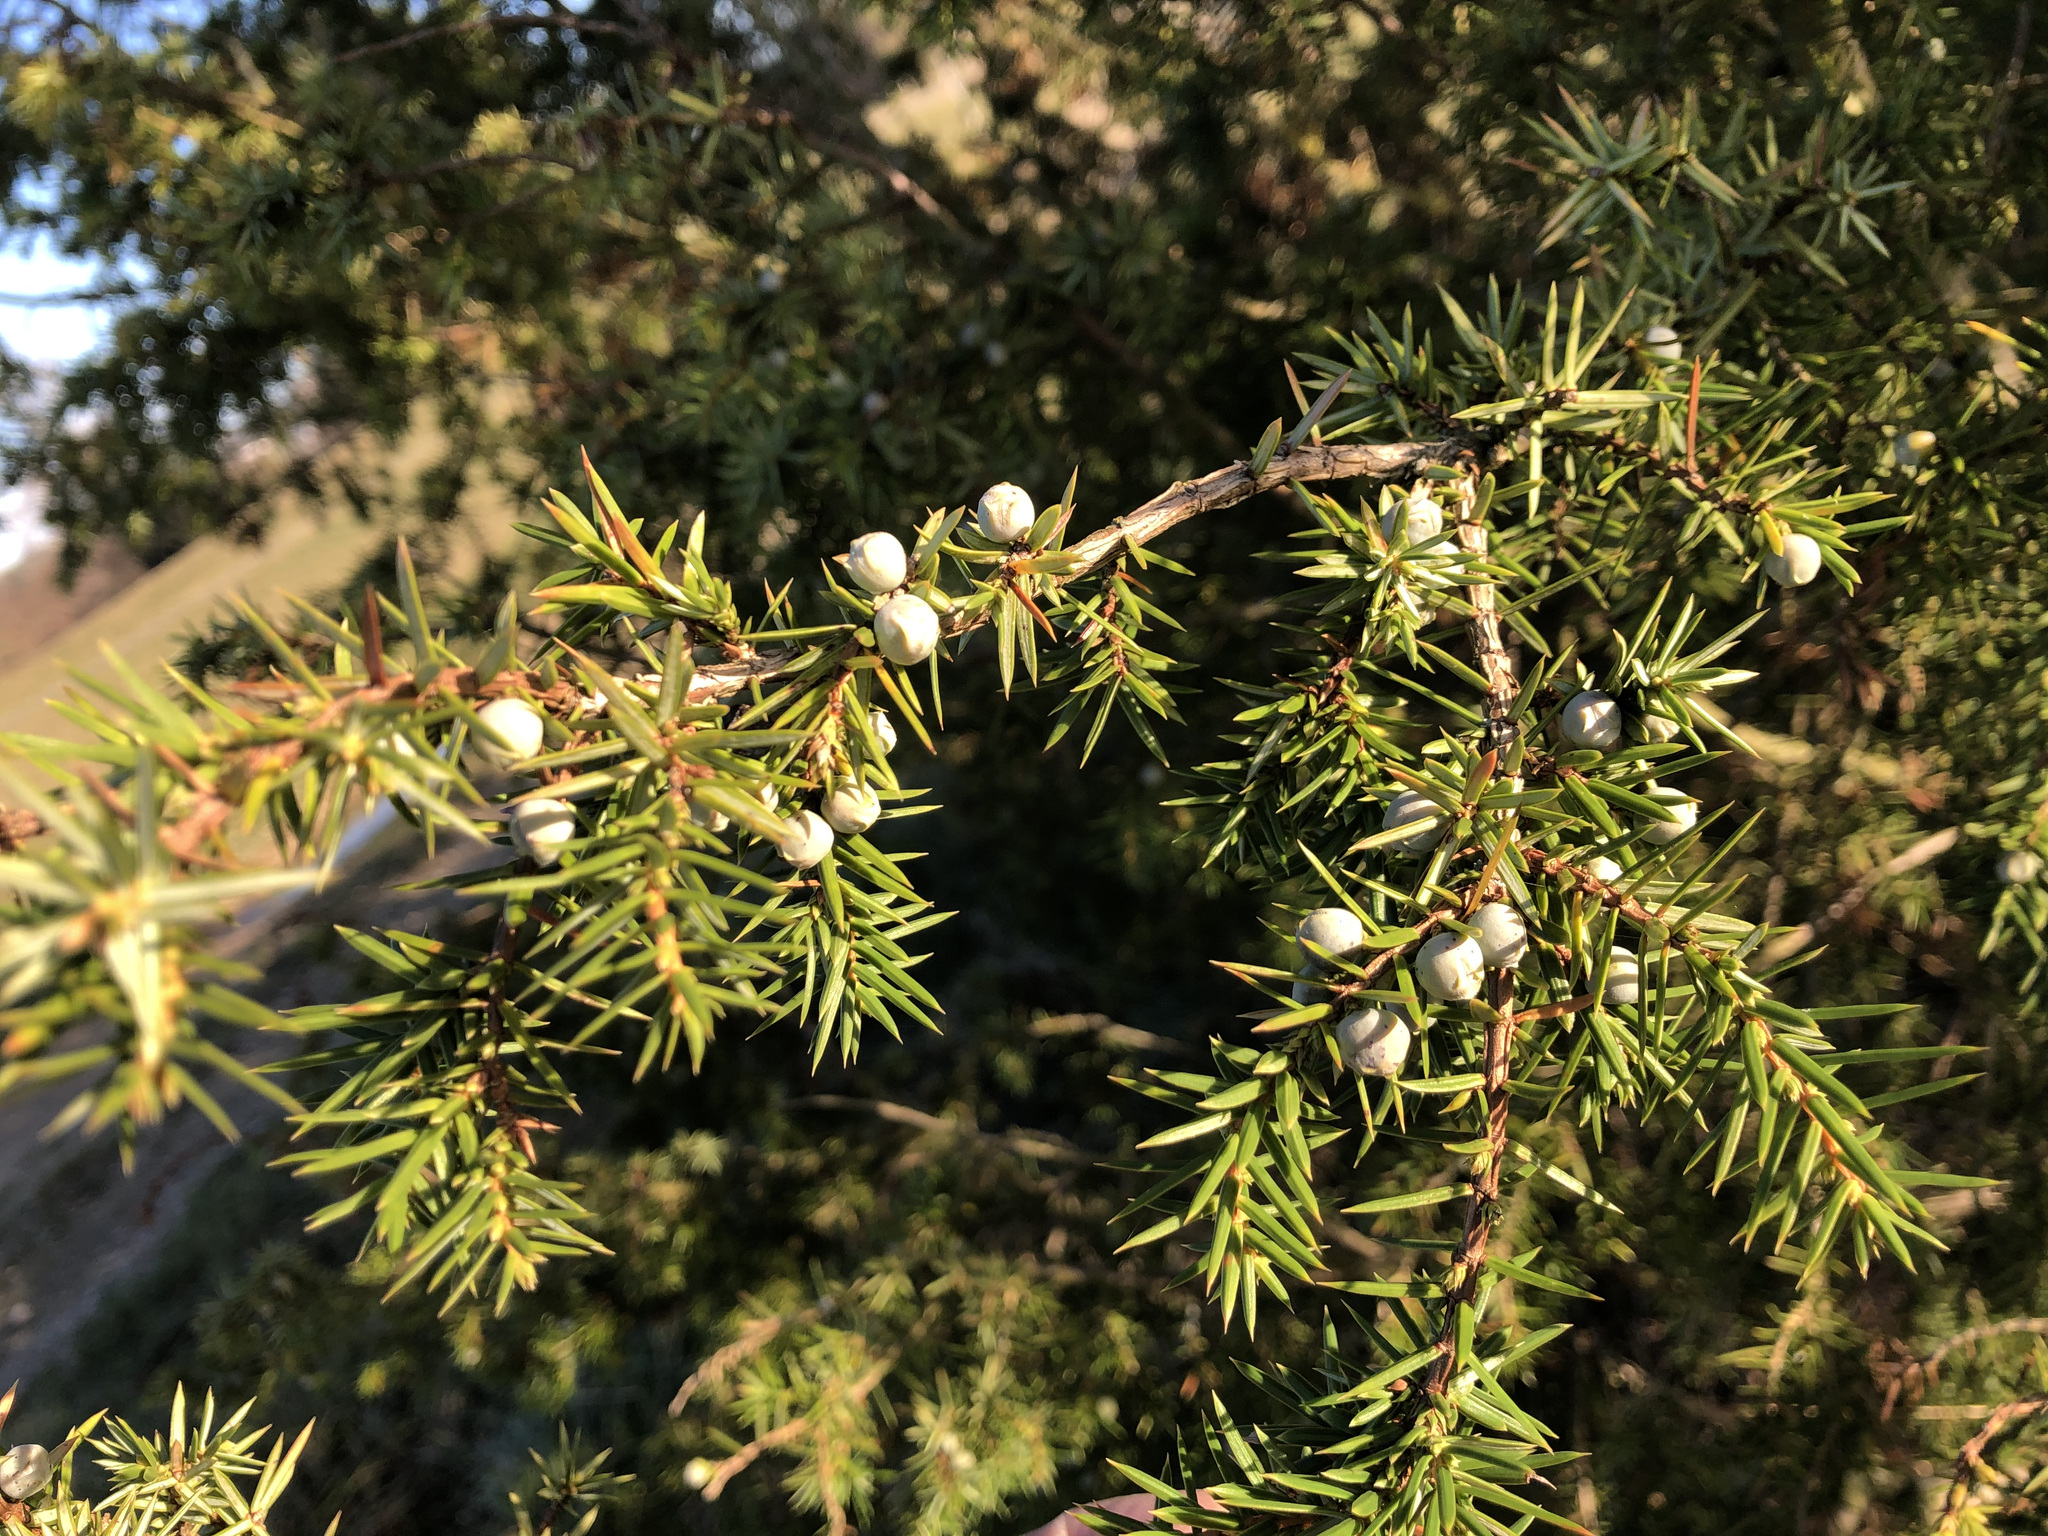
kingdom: Plantae
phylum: Tracheophyta
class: Pinopsida
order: Pinales
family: Cupressaceae
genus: Juniperus
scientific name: Juniperus communis
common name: Common juniper
